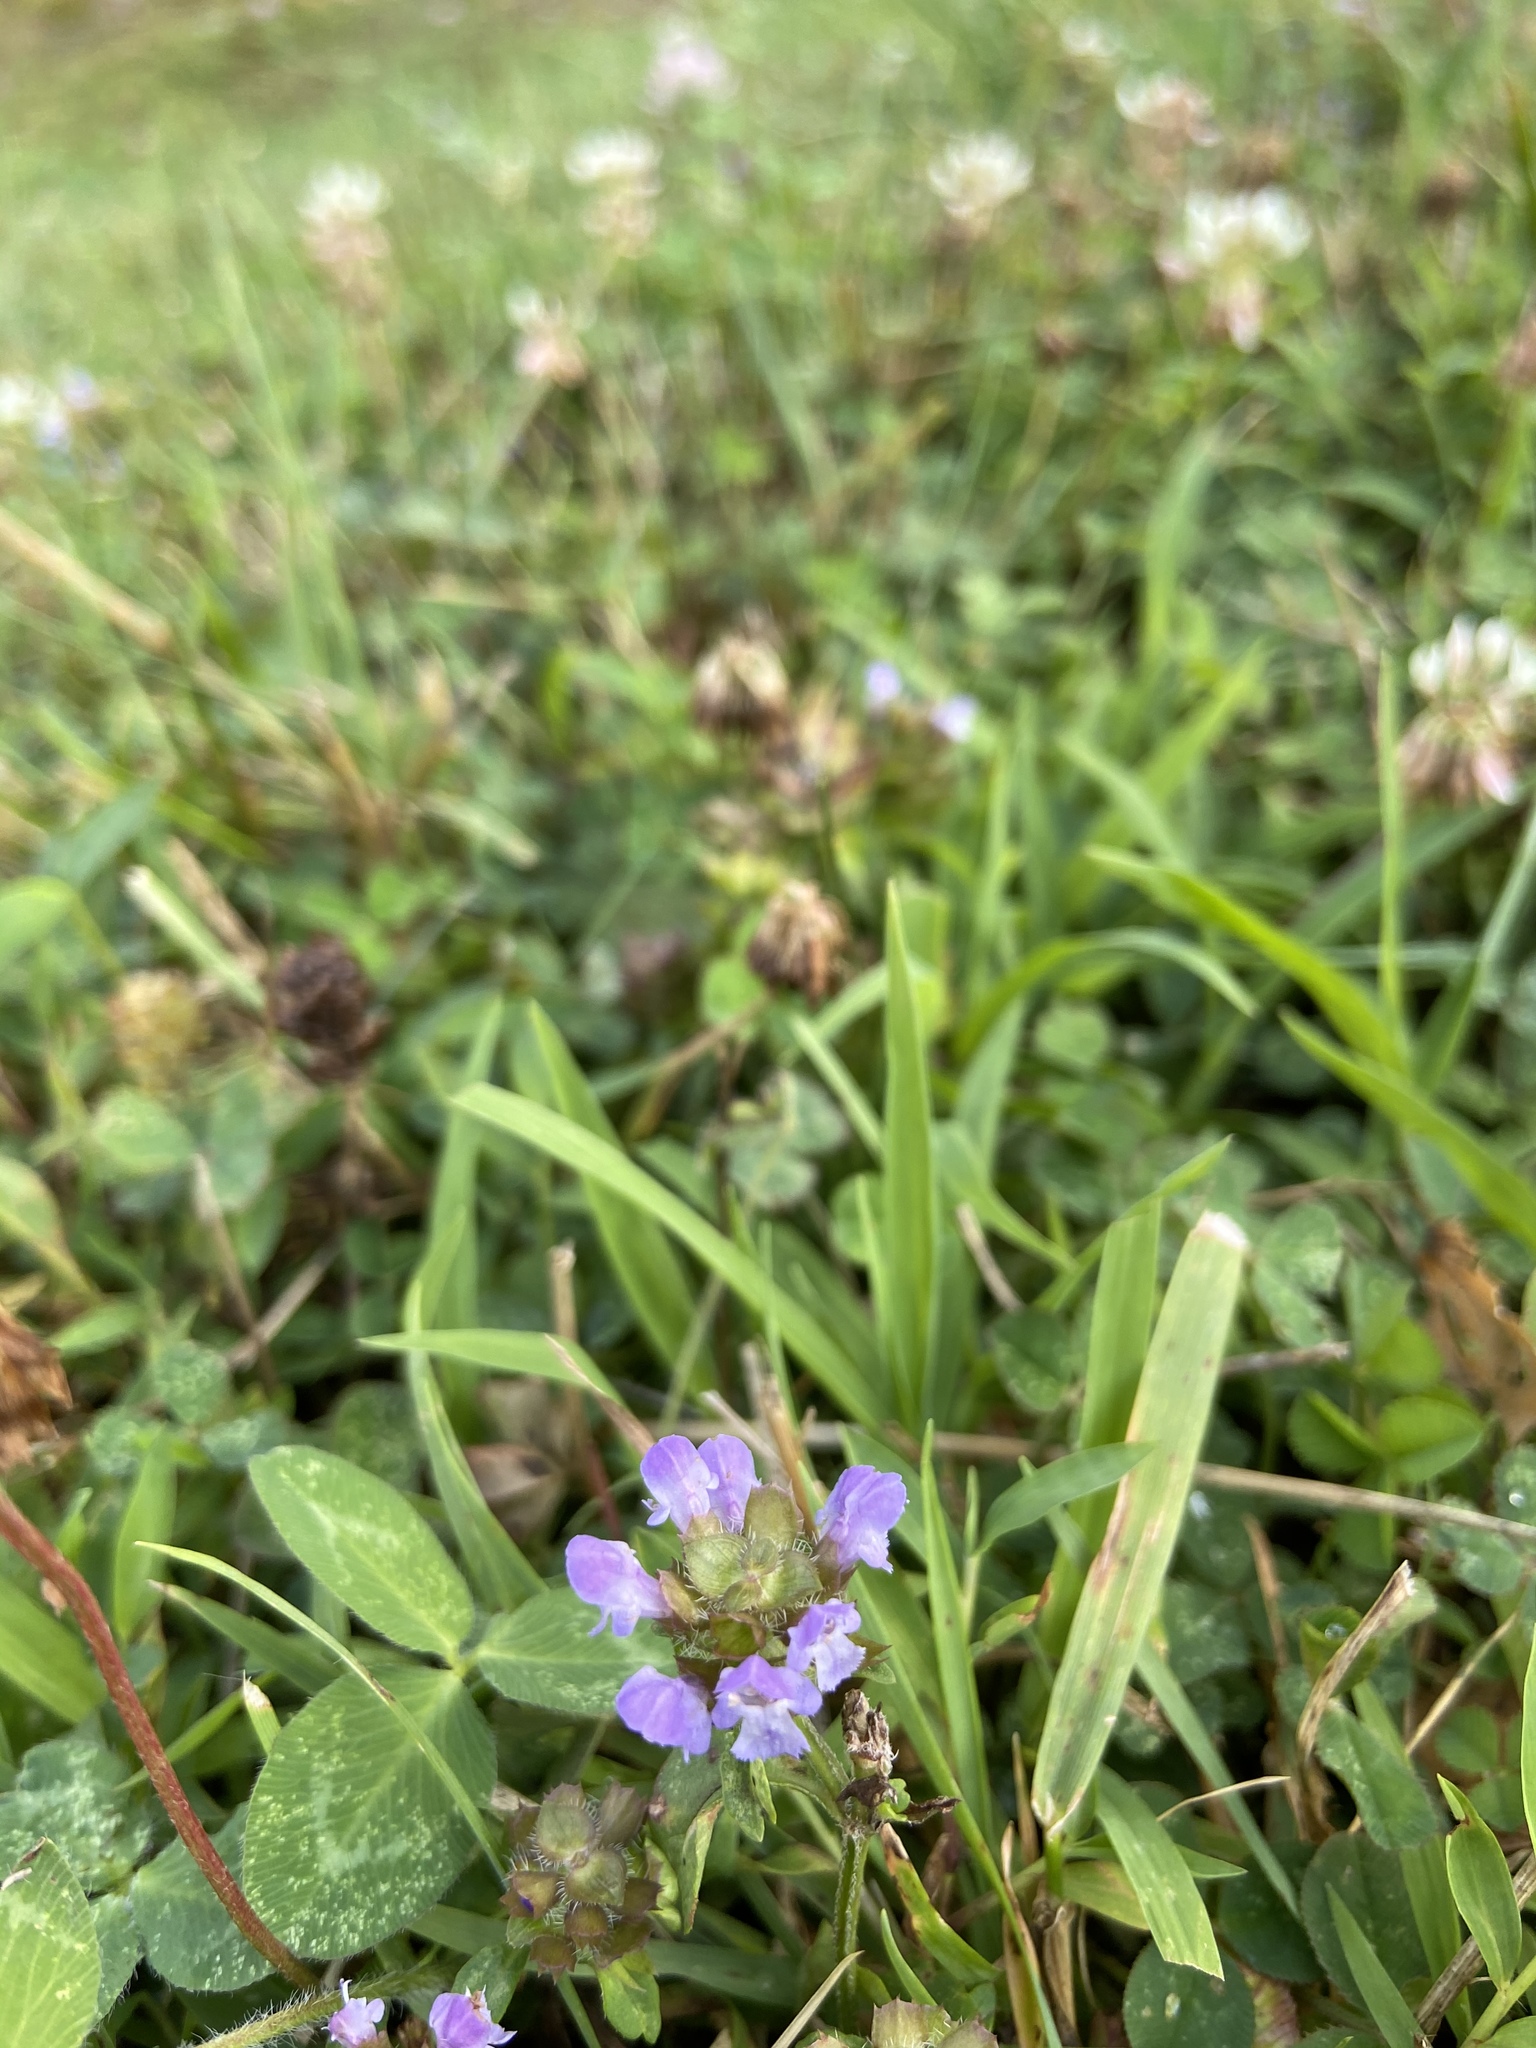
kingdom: Plantae
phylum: Tracheophyta
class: Magnoliopsida
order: Lamiales
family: Lamiaceae
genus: Prunella
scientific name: Prunella vulgaris
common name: Heal-all
